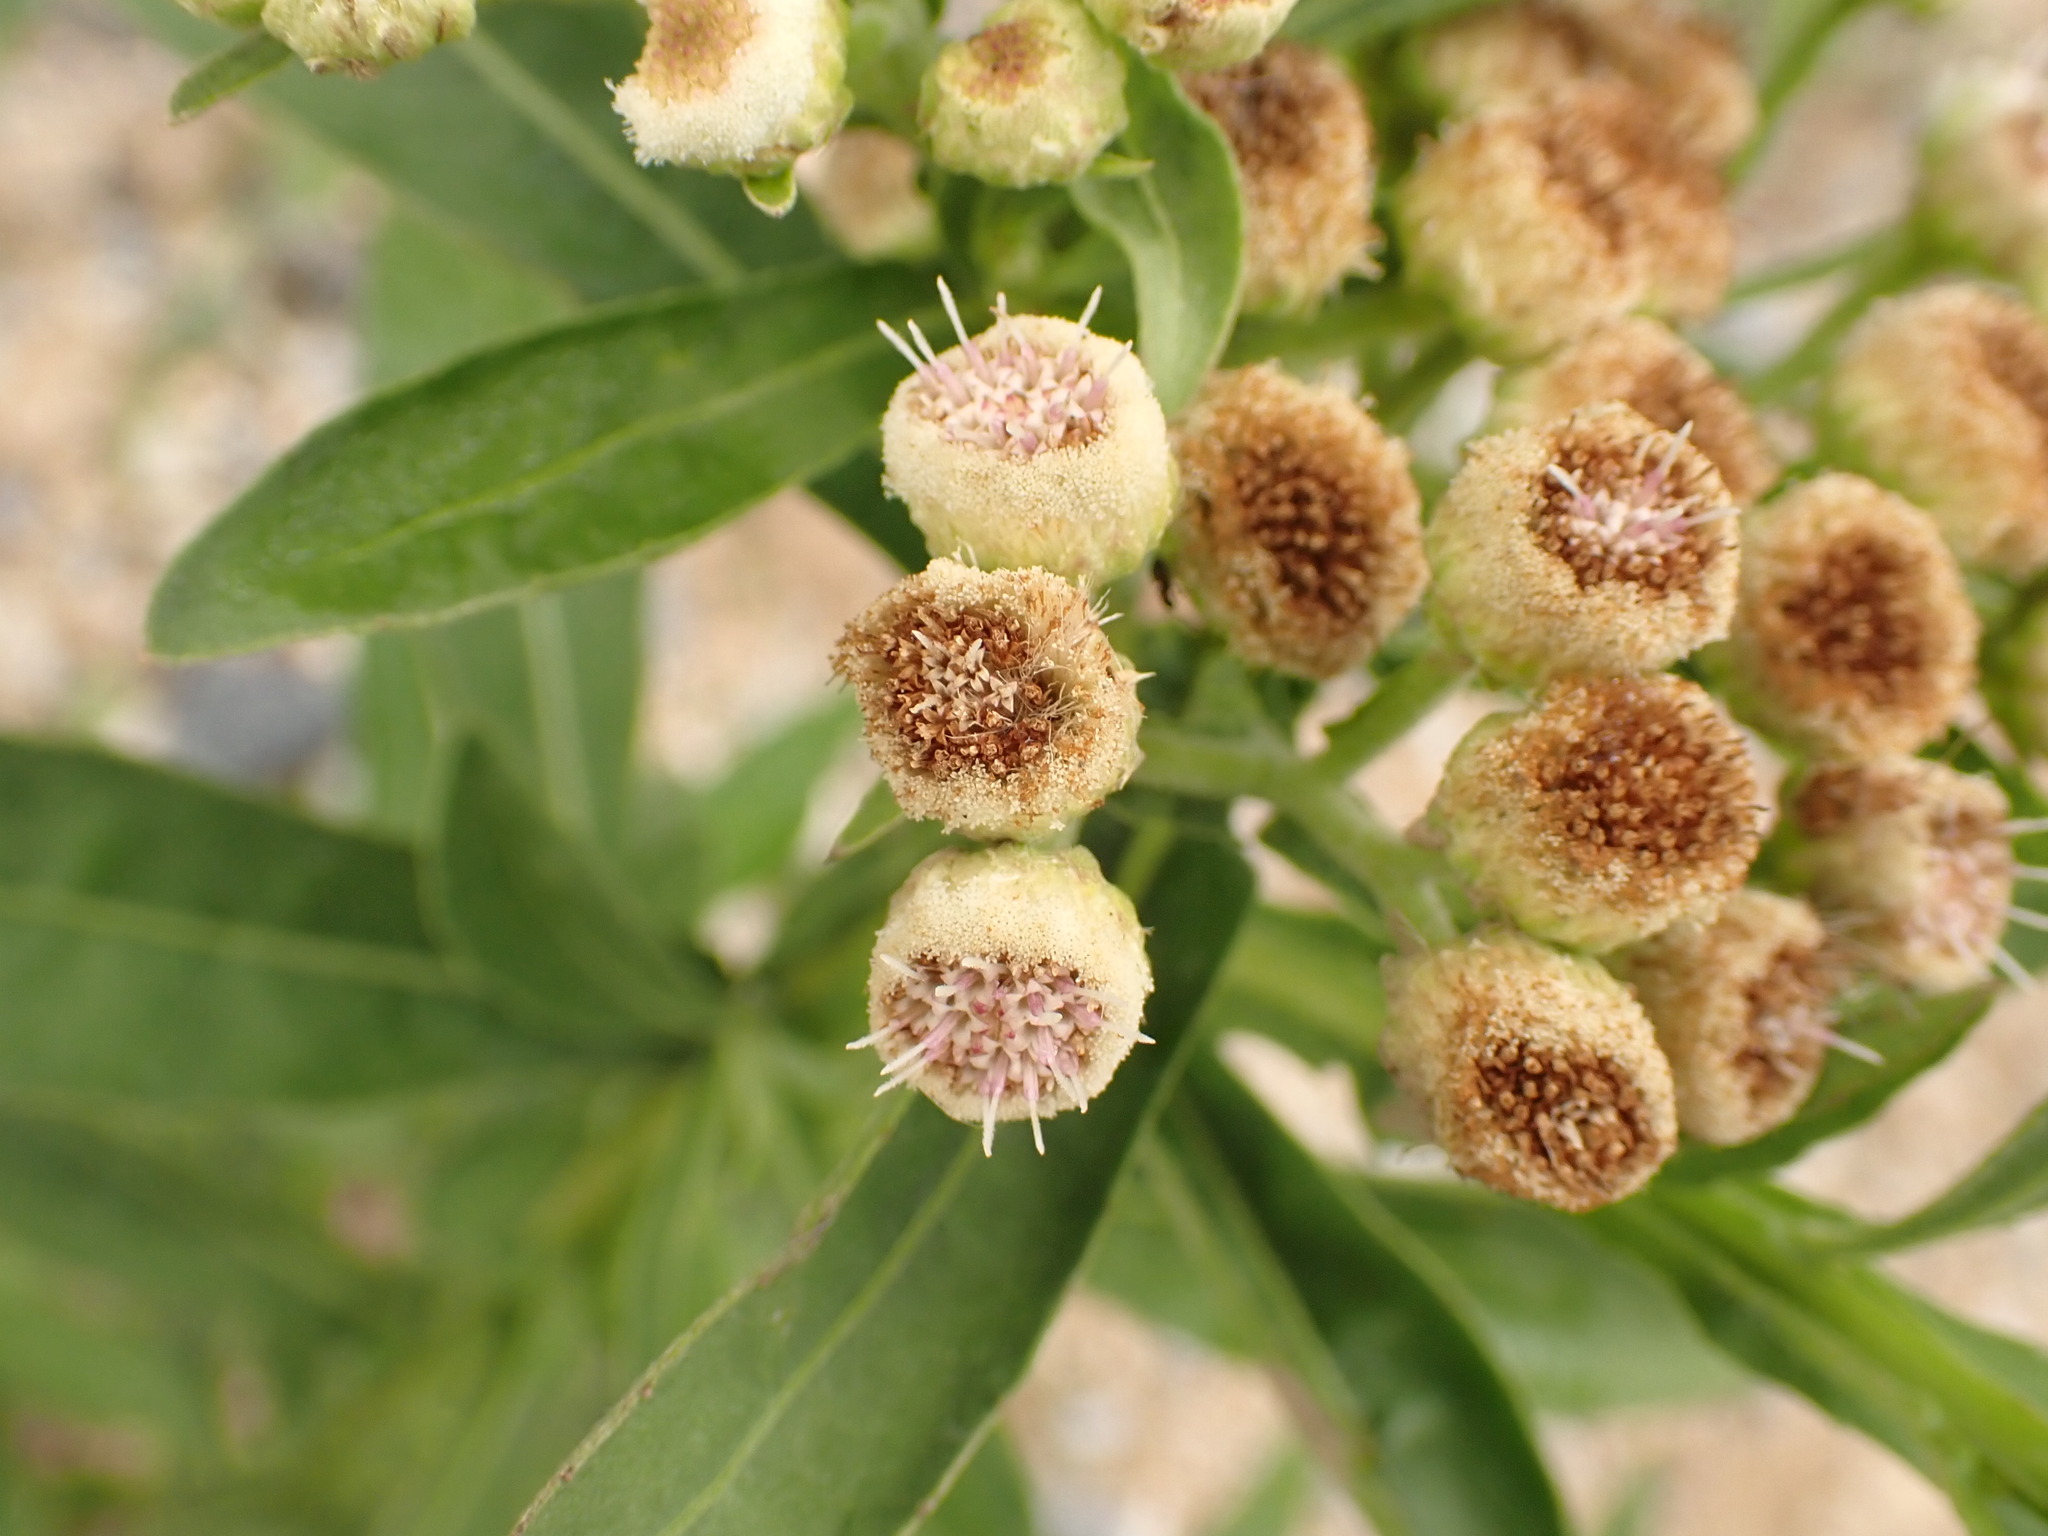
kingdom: Plantae
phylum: Tracheophyta
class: Magnoliopsida
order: Asterales
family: Asteraceae
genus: Pluchea
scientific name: Pluchea sagittalis
